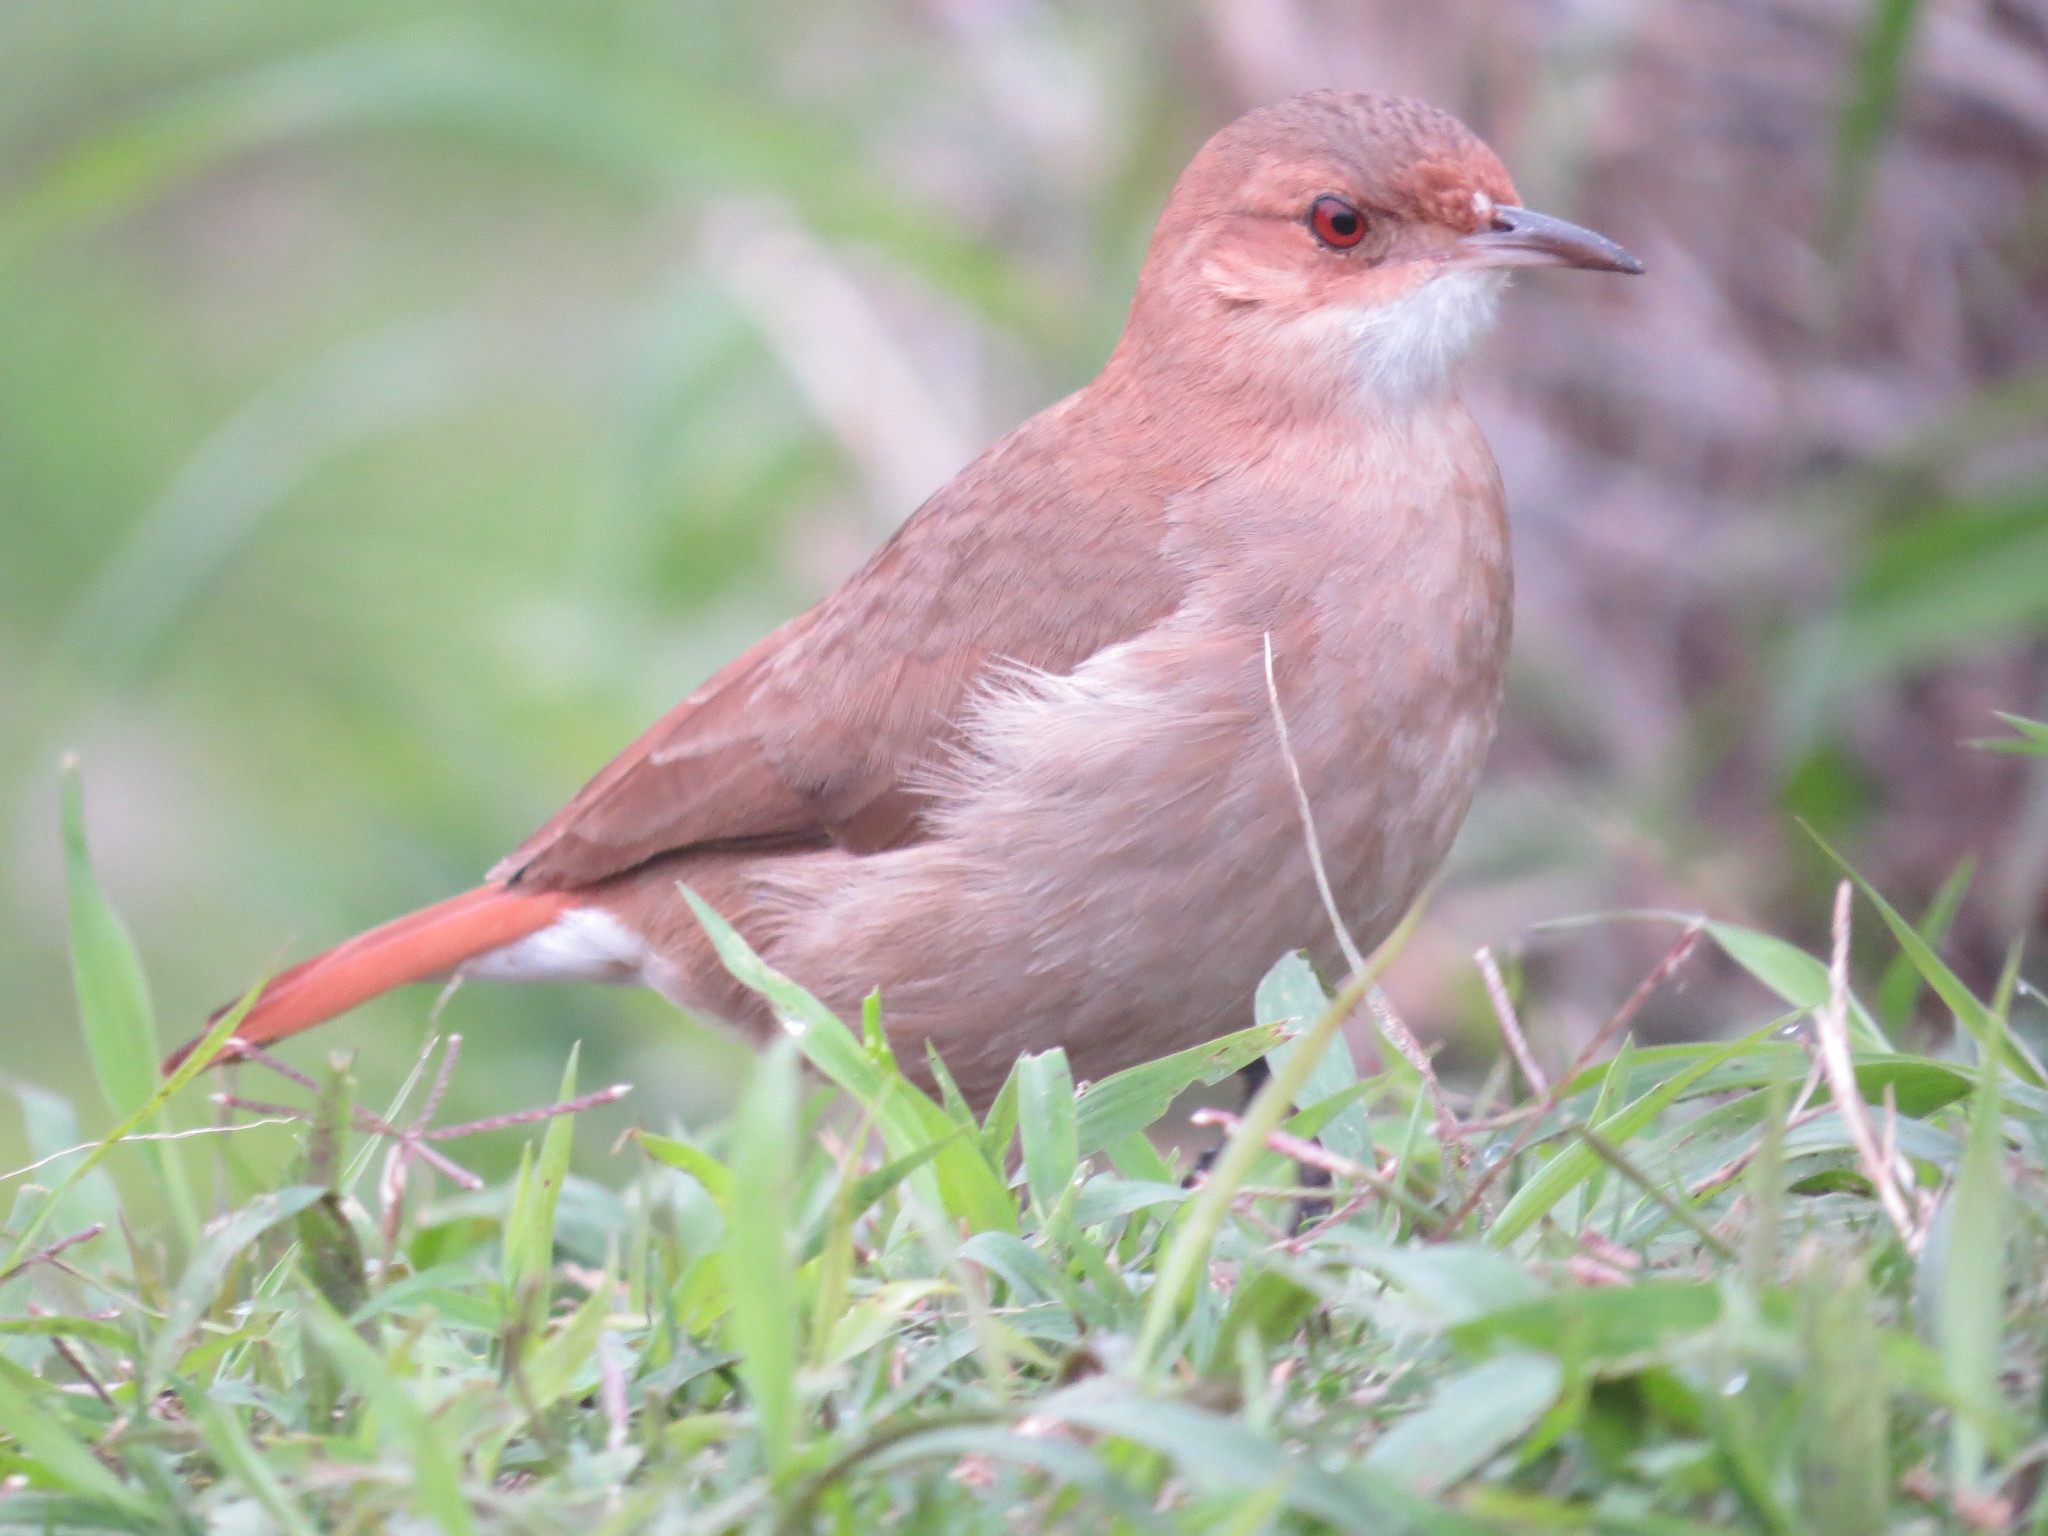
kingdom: Animalia
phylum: Chordata
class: Aves
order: Passeriformes
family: Furnariidae
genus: Furnarius
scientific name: Furnarius rufus
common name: Rufous hornero
